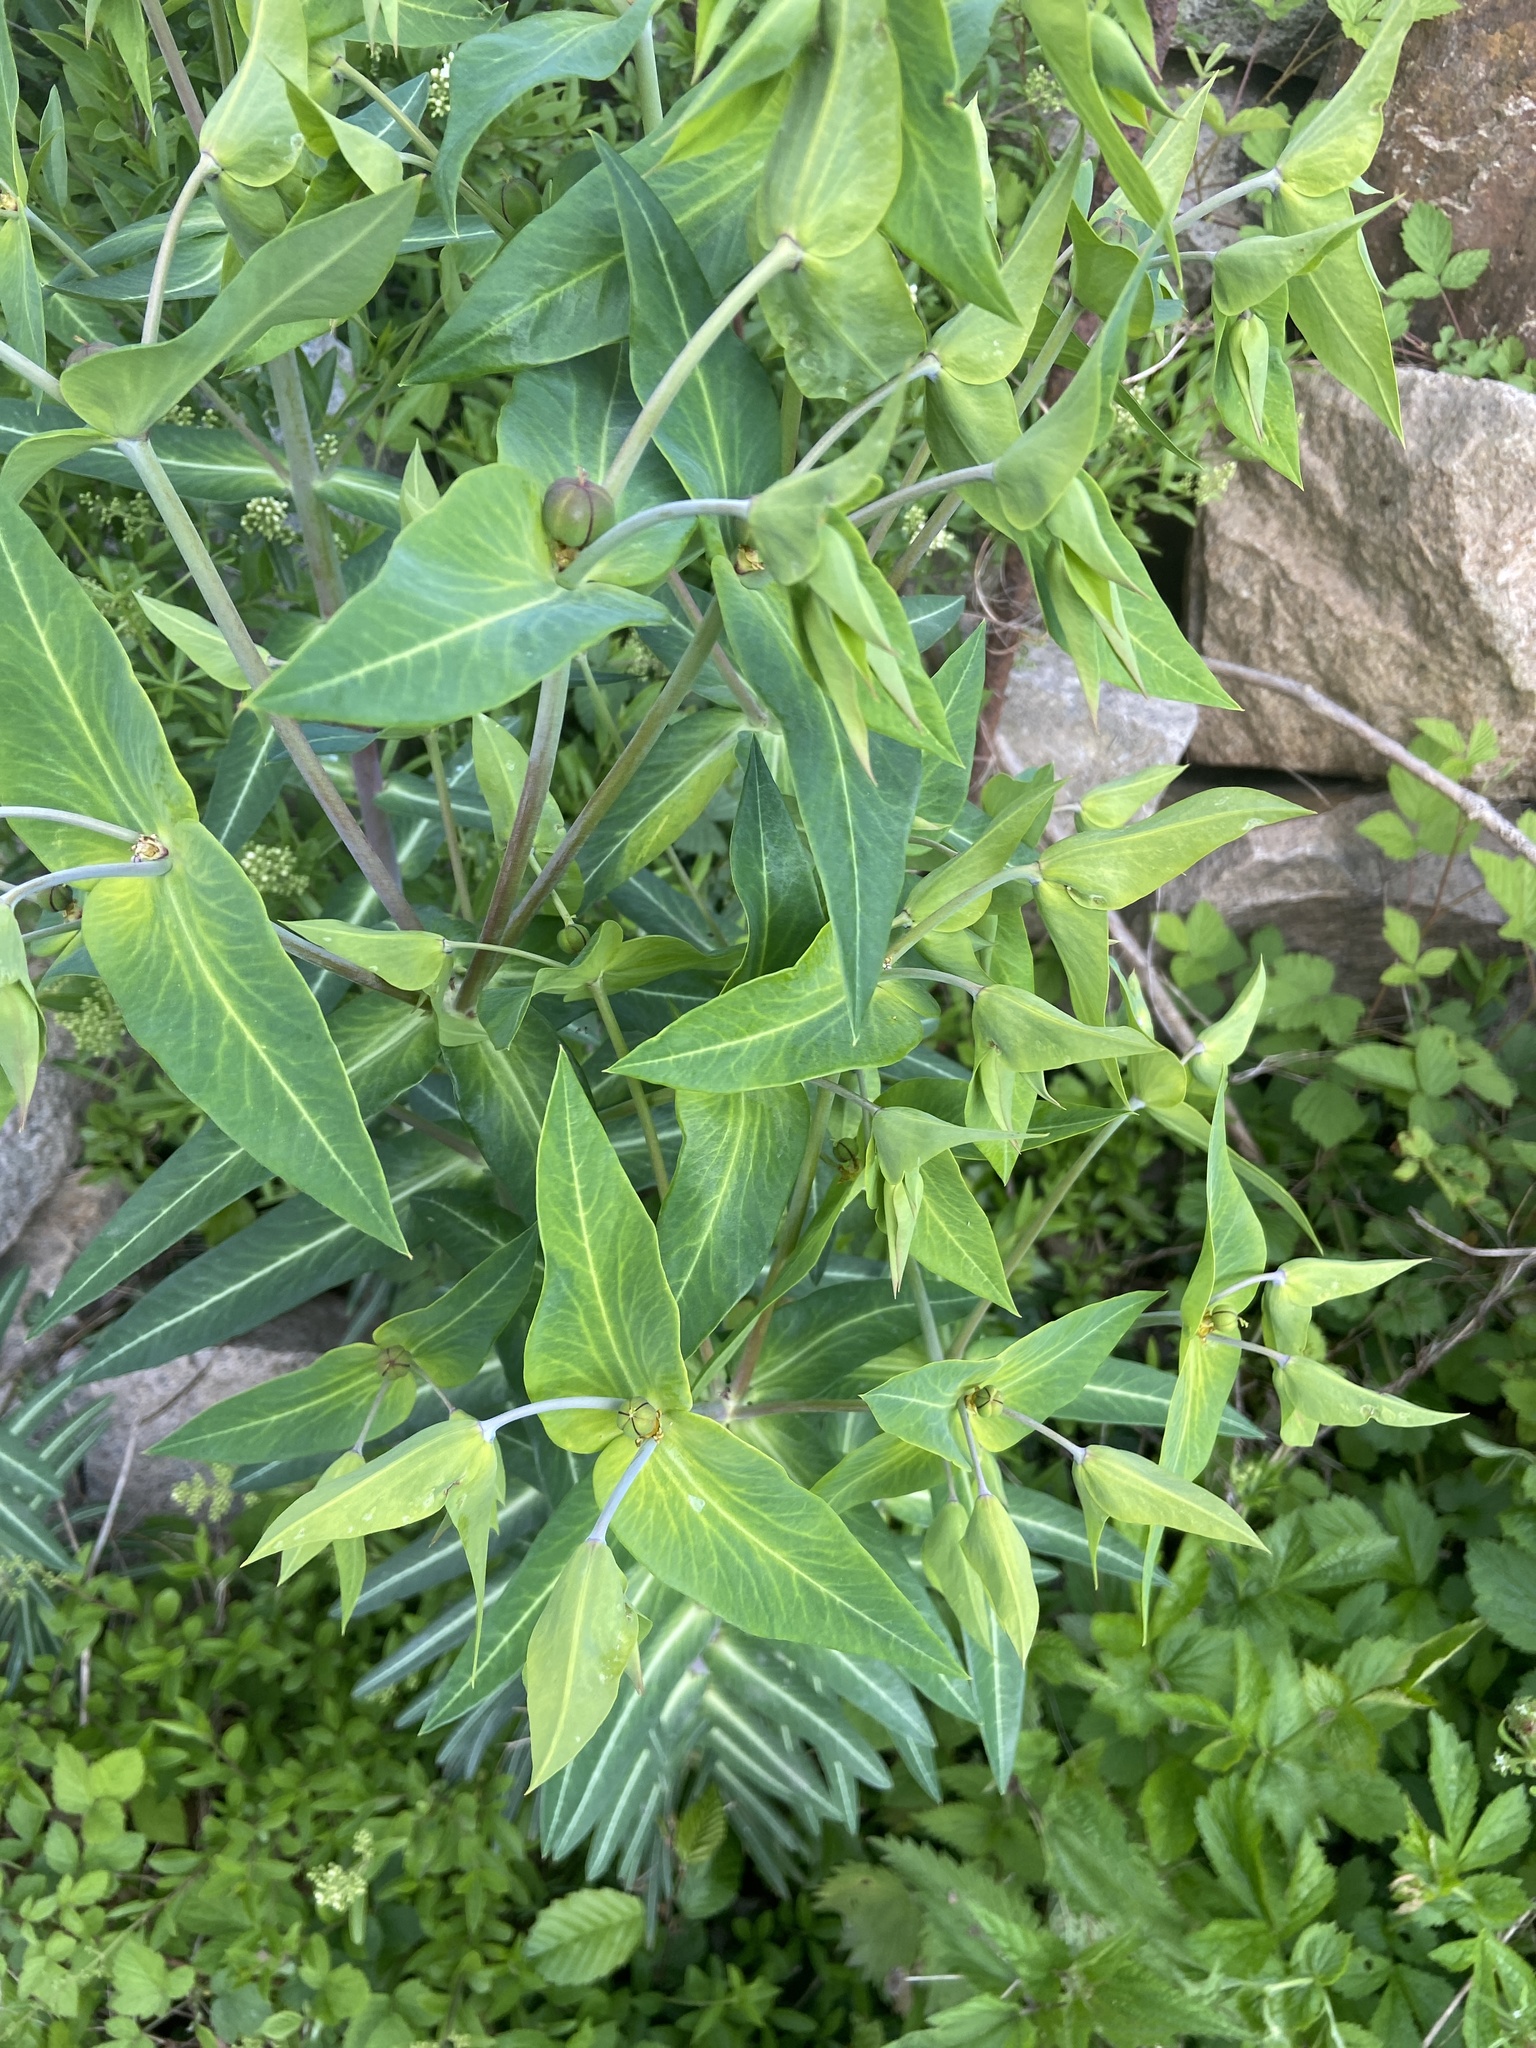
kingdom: Plantae
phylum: Tracheophyta
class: Magnoliopsida
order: Malpighiales
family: Euphorbiaceae
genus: Euphorbia
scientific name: Euphorbia lathyris
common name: Caper spurge
